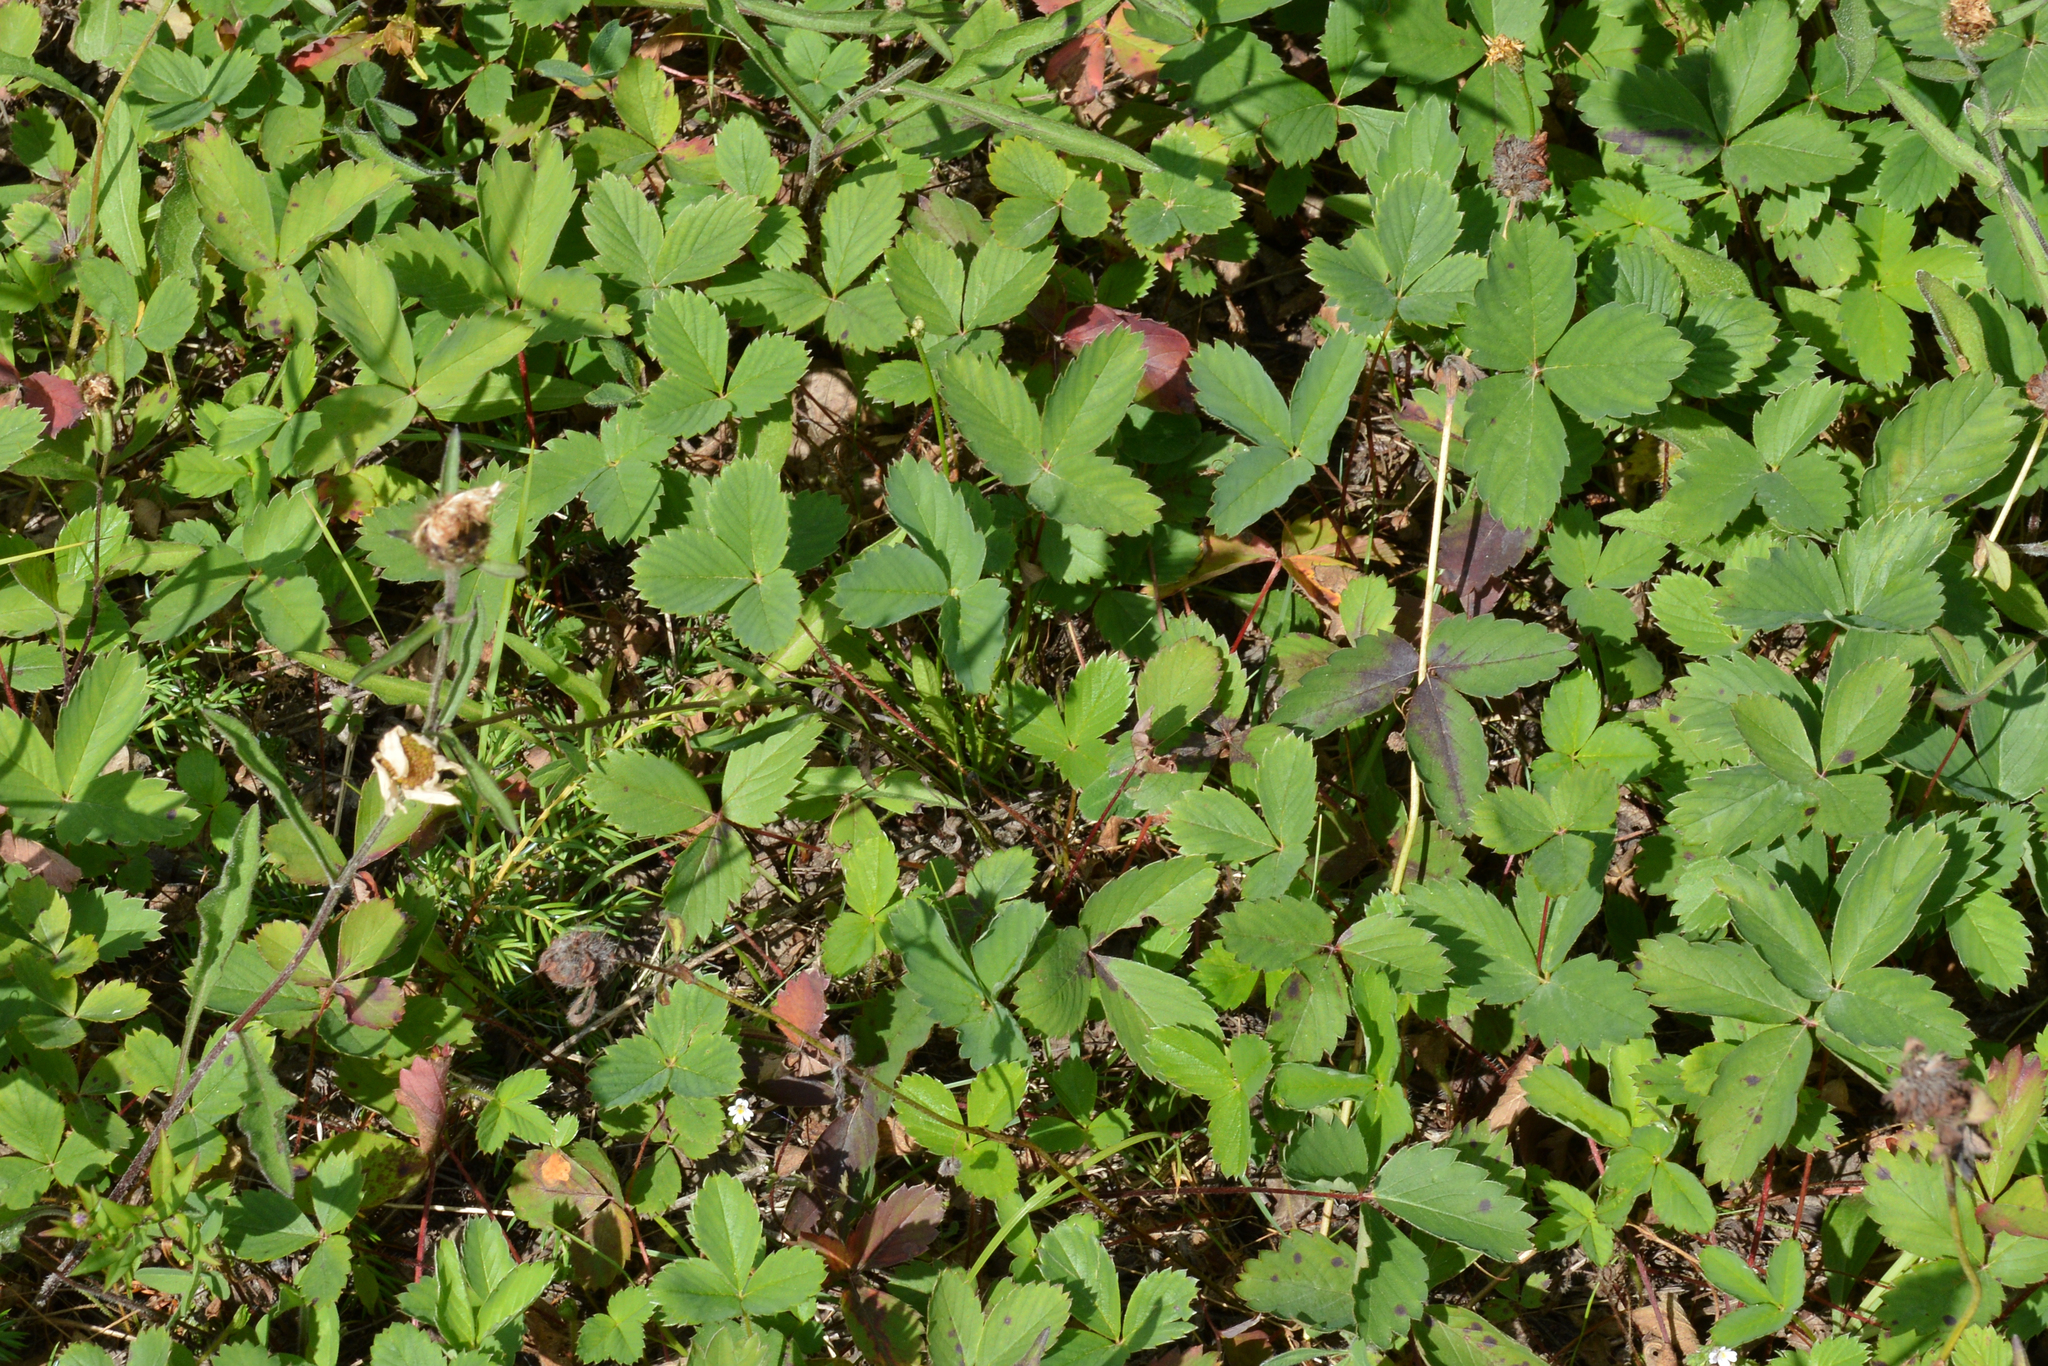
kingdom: Plantae
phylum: Tracheophyta
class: Magnoliopsida
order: Rosales
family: Rosaceae
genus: Fragaria
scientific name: Fragaria virginiana
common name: Thickleaved wild strawberry
